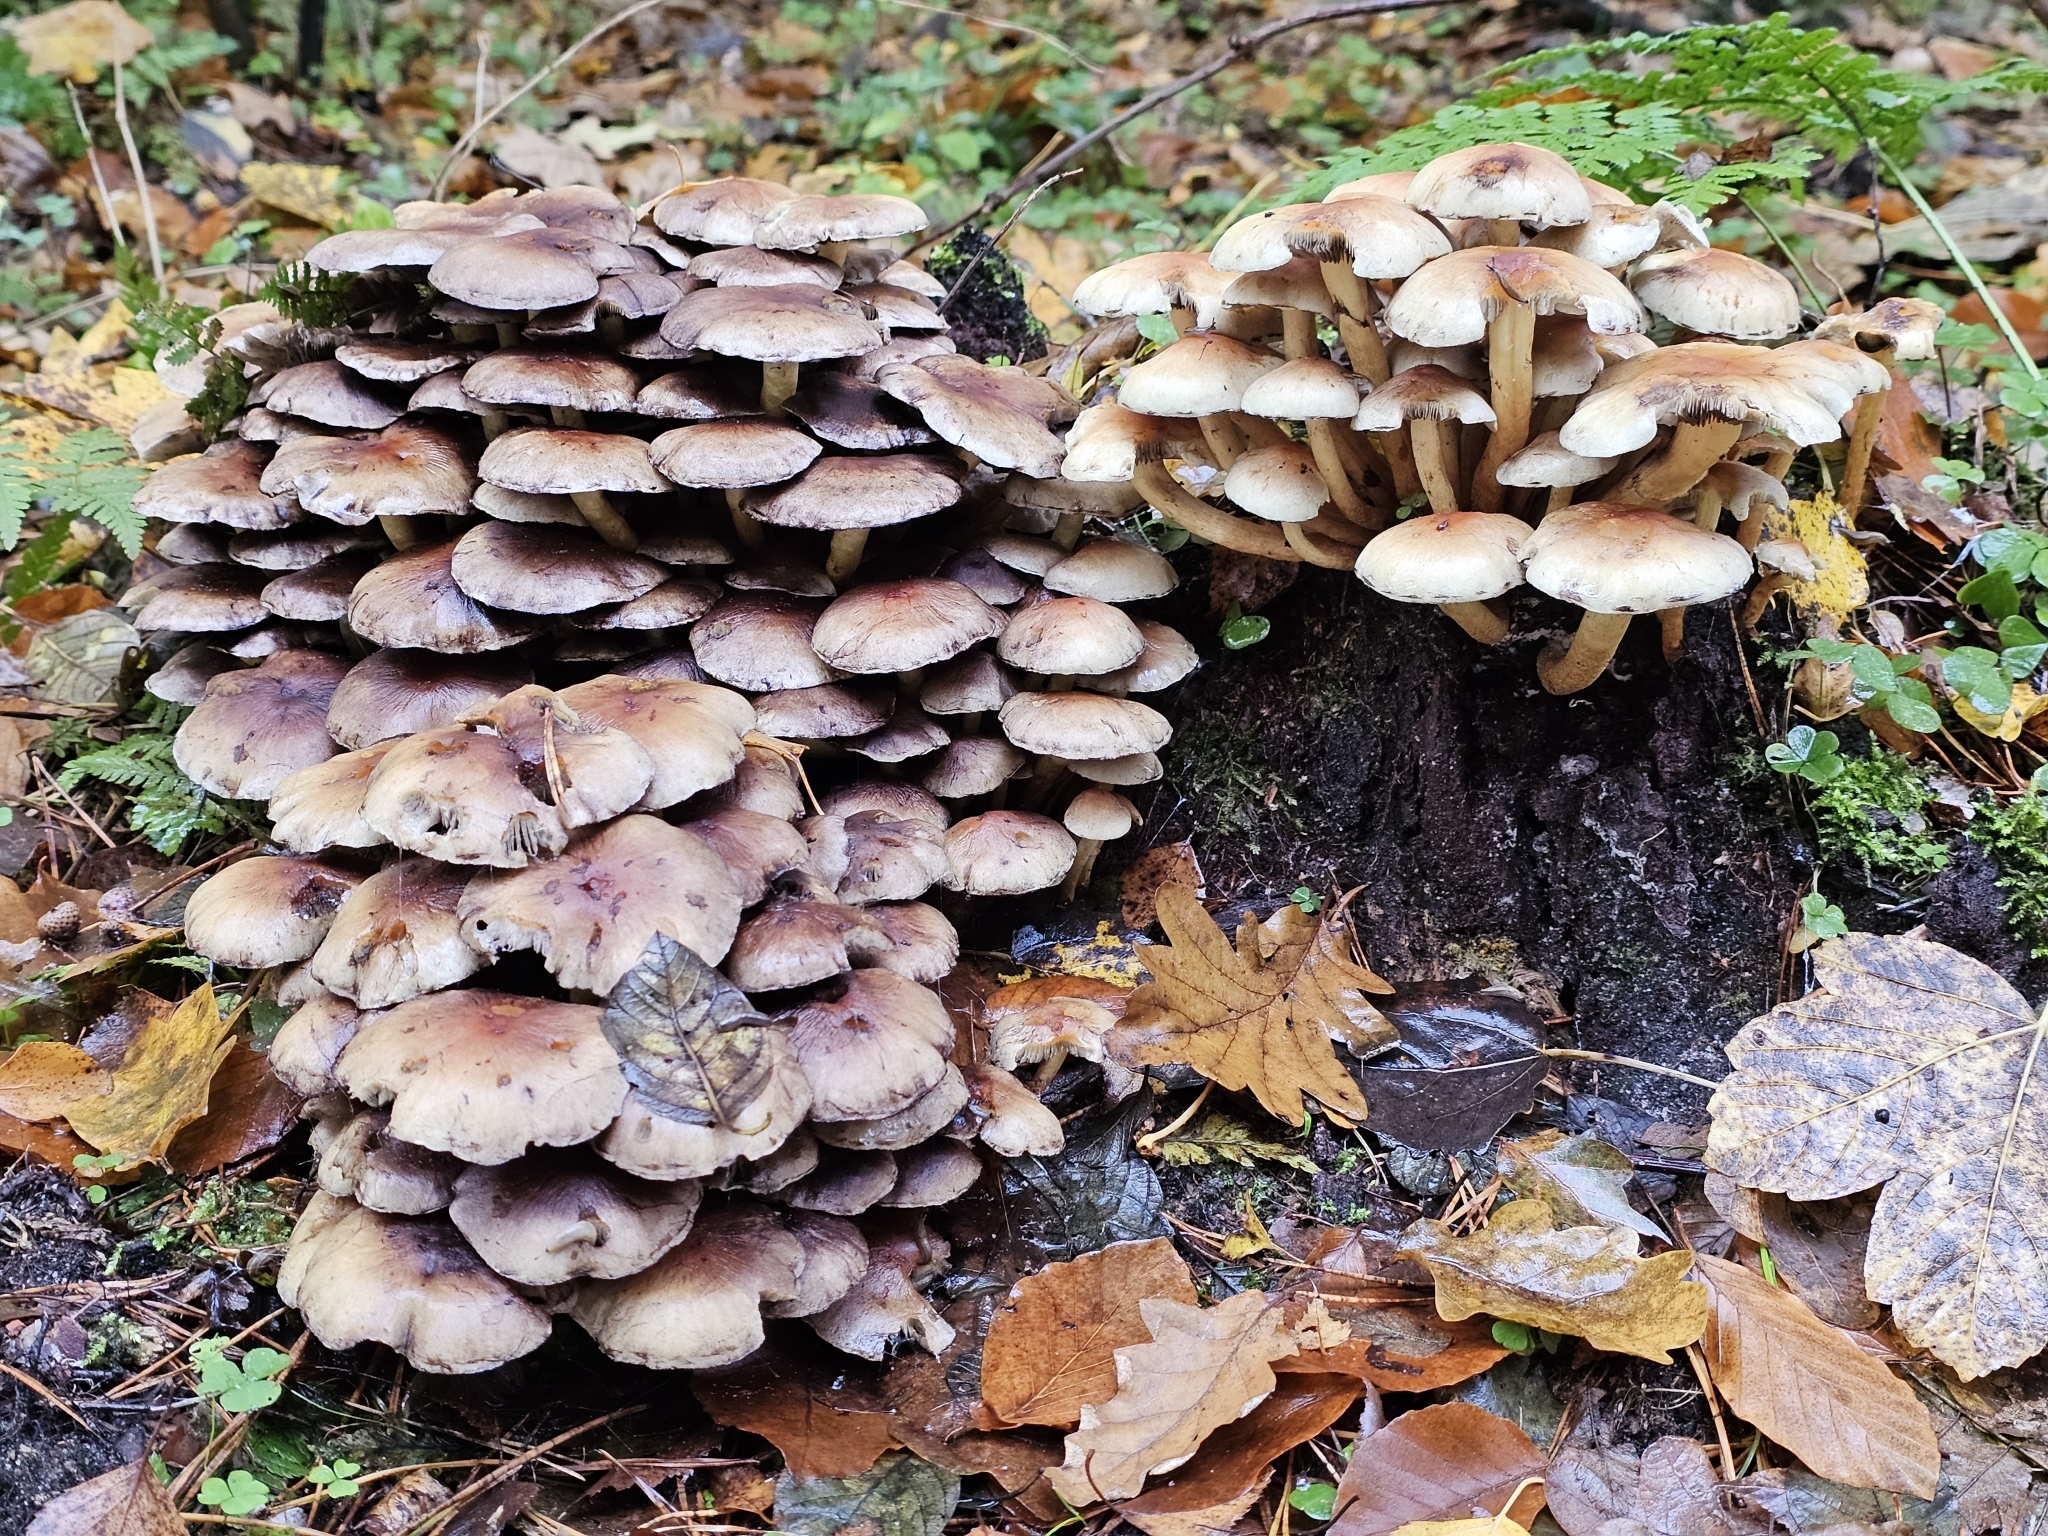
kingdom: Fungi
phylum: Basidiomycota
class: Agaricomycetes
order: Agaricales
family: Strophariaceae
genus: Hypholoma
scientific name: Hypholoma fasciculare
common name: Sulphur tuft
